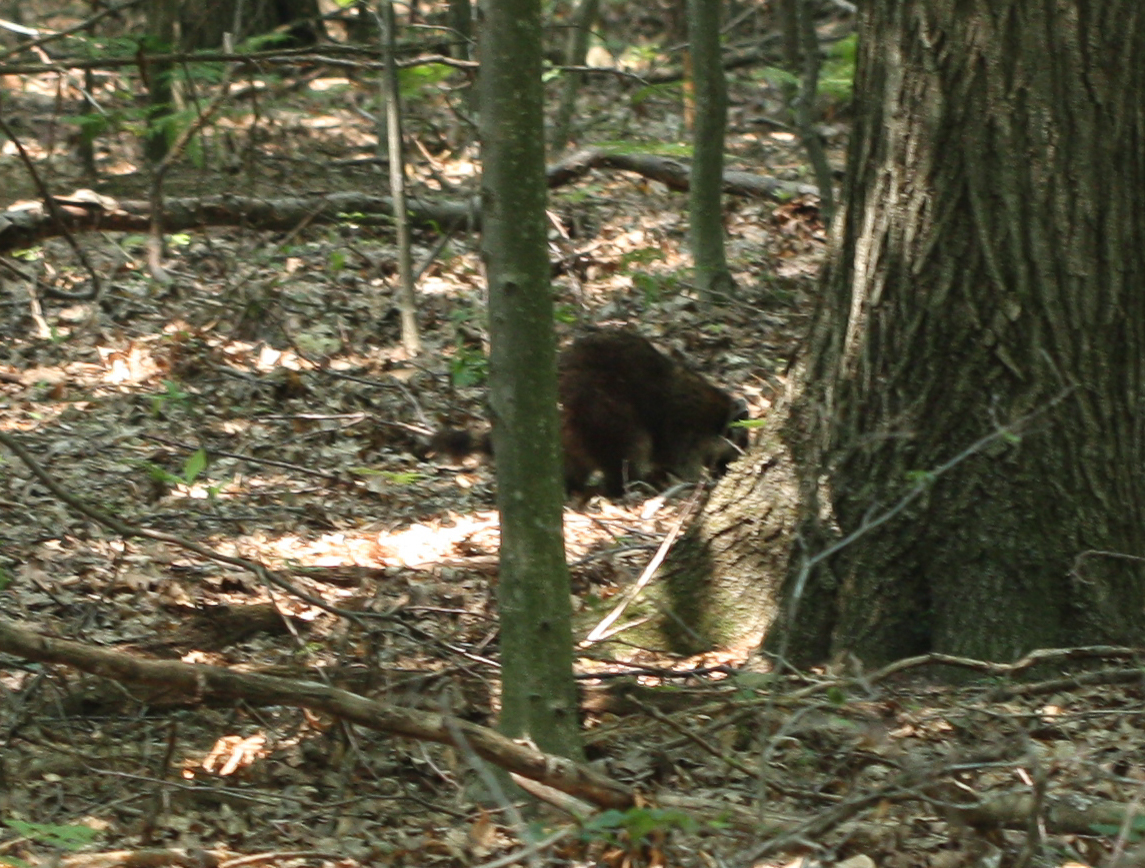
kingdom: Animalia
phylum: Chordata
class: Mammalia
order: Carnivora
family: Procyonidae
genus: Procyon
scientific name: Procyon lotor
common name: Raccoon
